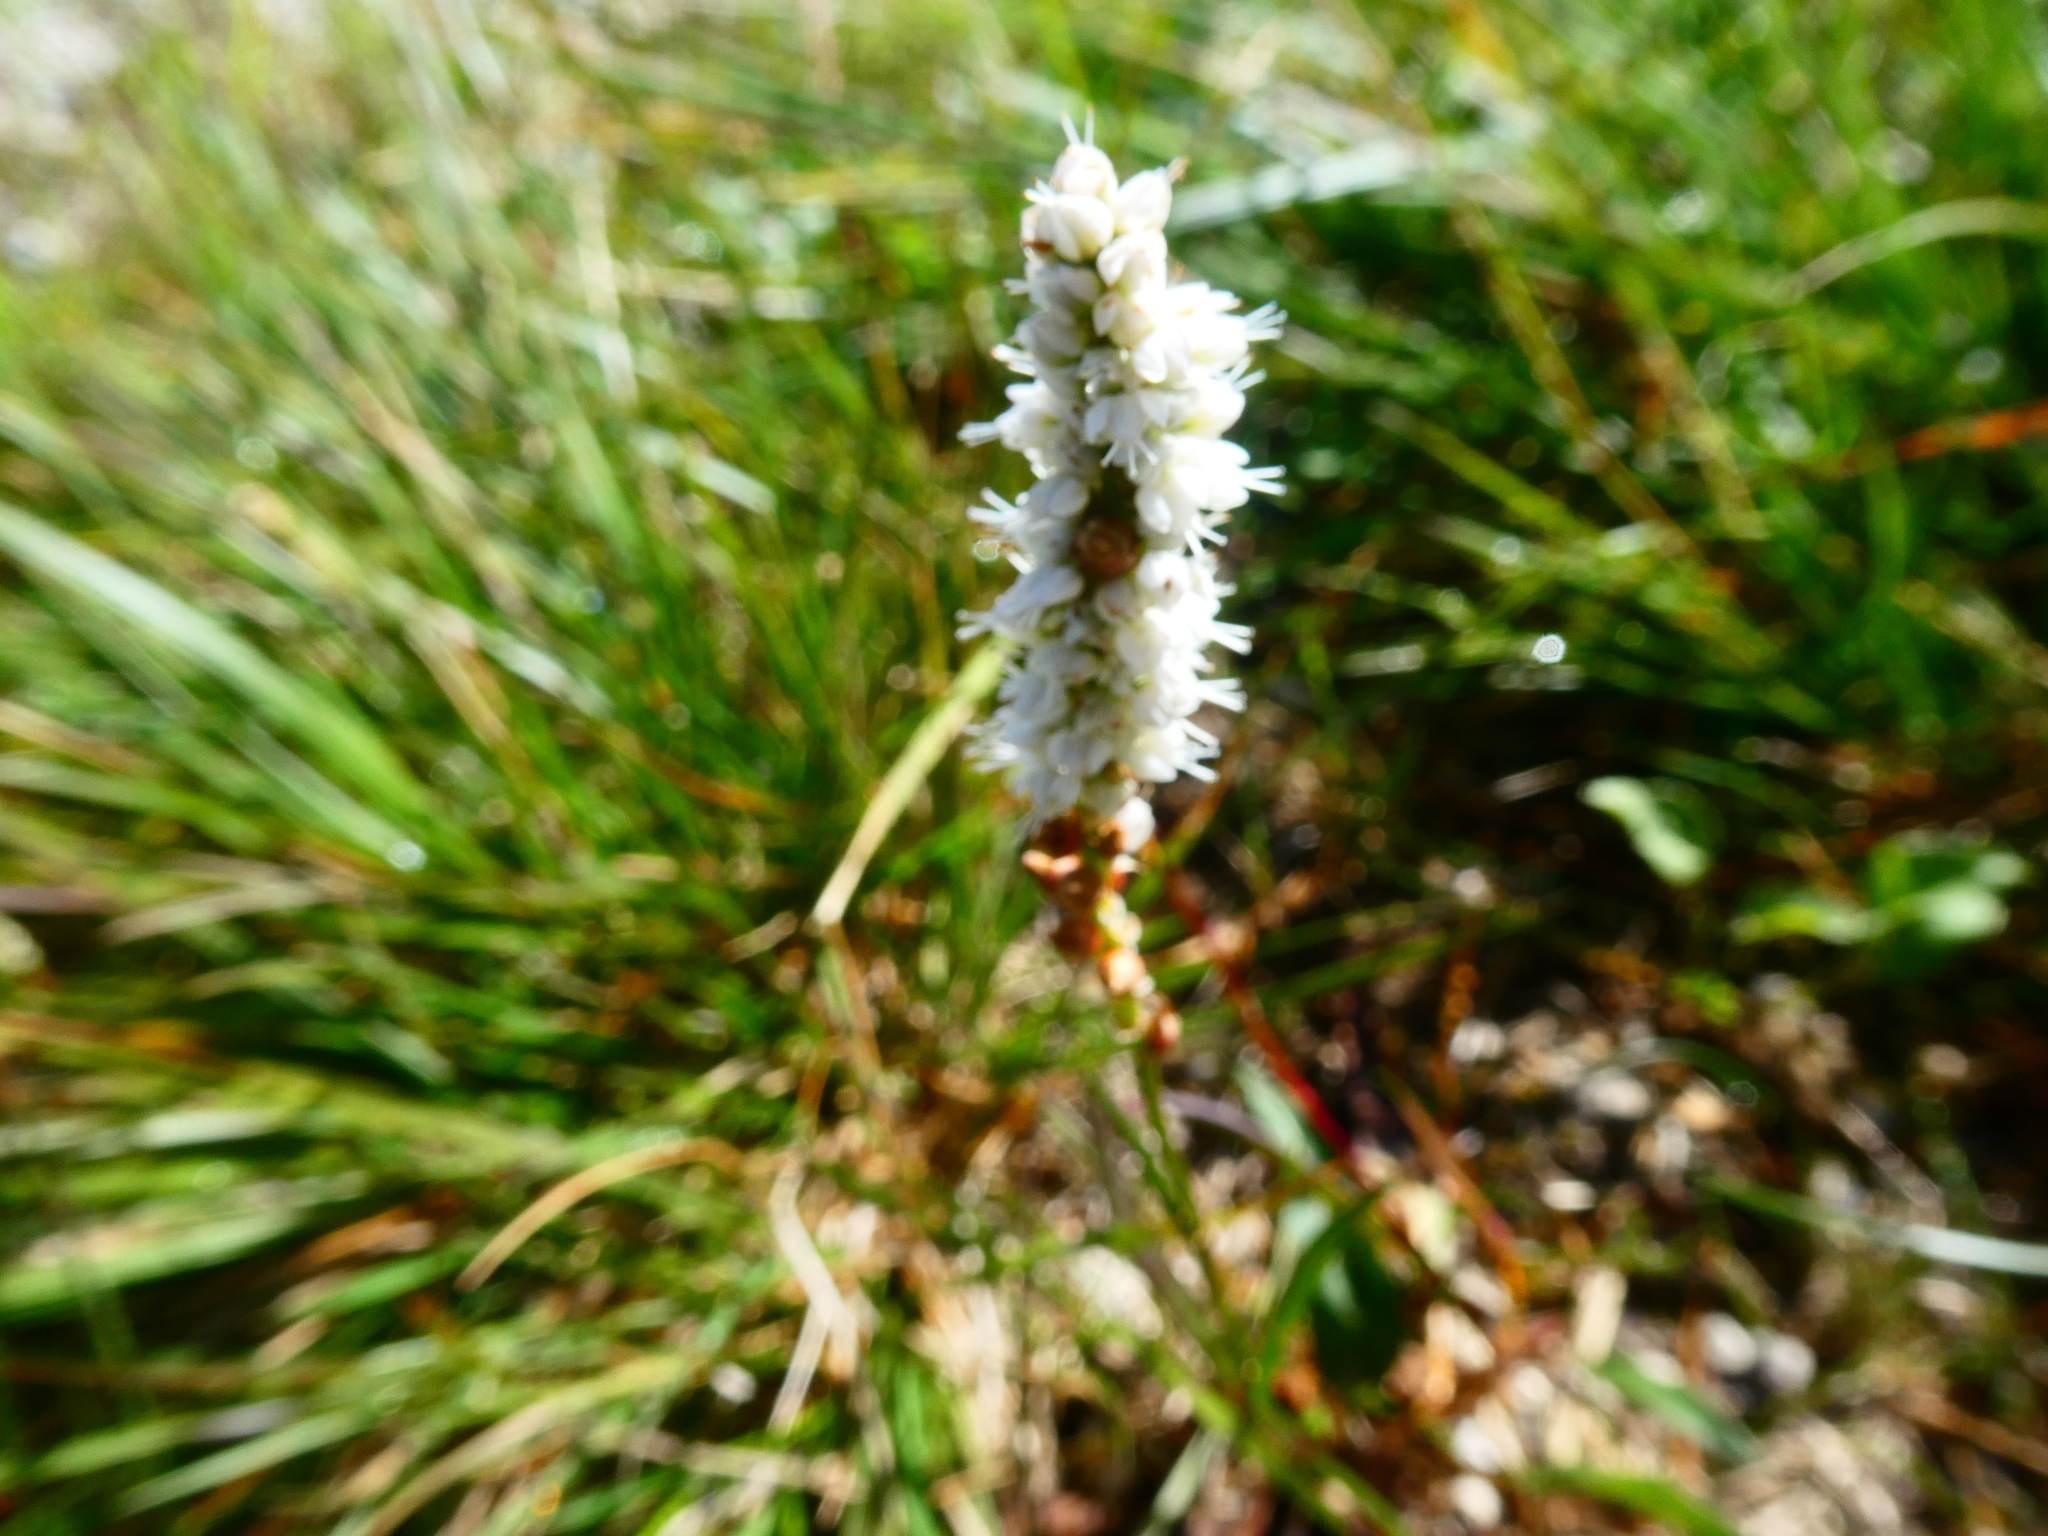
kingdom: Plantae
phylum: Tracheophyta
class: Magnoliopsida
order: Caryophyllales
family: Polygonaceae
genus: Bistorta
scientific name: Bistorta vivipara
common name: Alpine bistort
